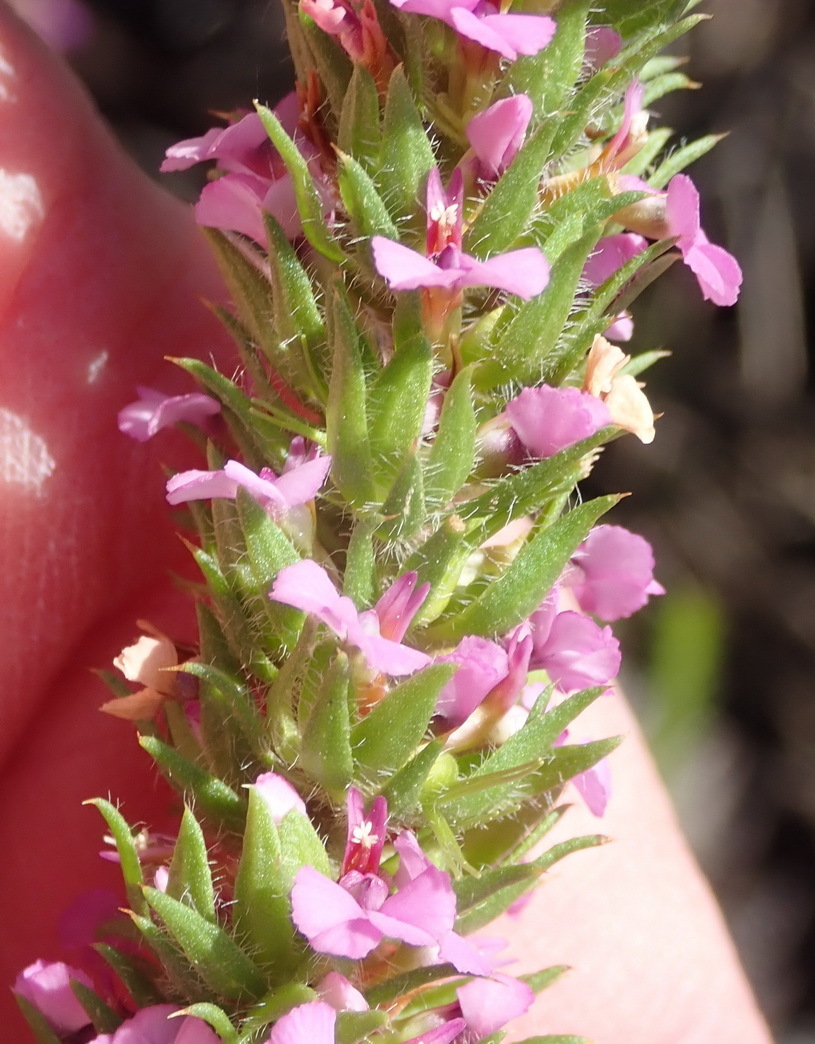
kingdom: Plantae
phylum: Tracheophyta
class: Magnoliopsida
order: Fabales
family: Polygalaceae
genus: Muraltia
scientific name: Muraltia alopecuroides
